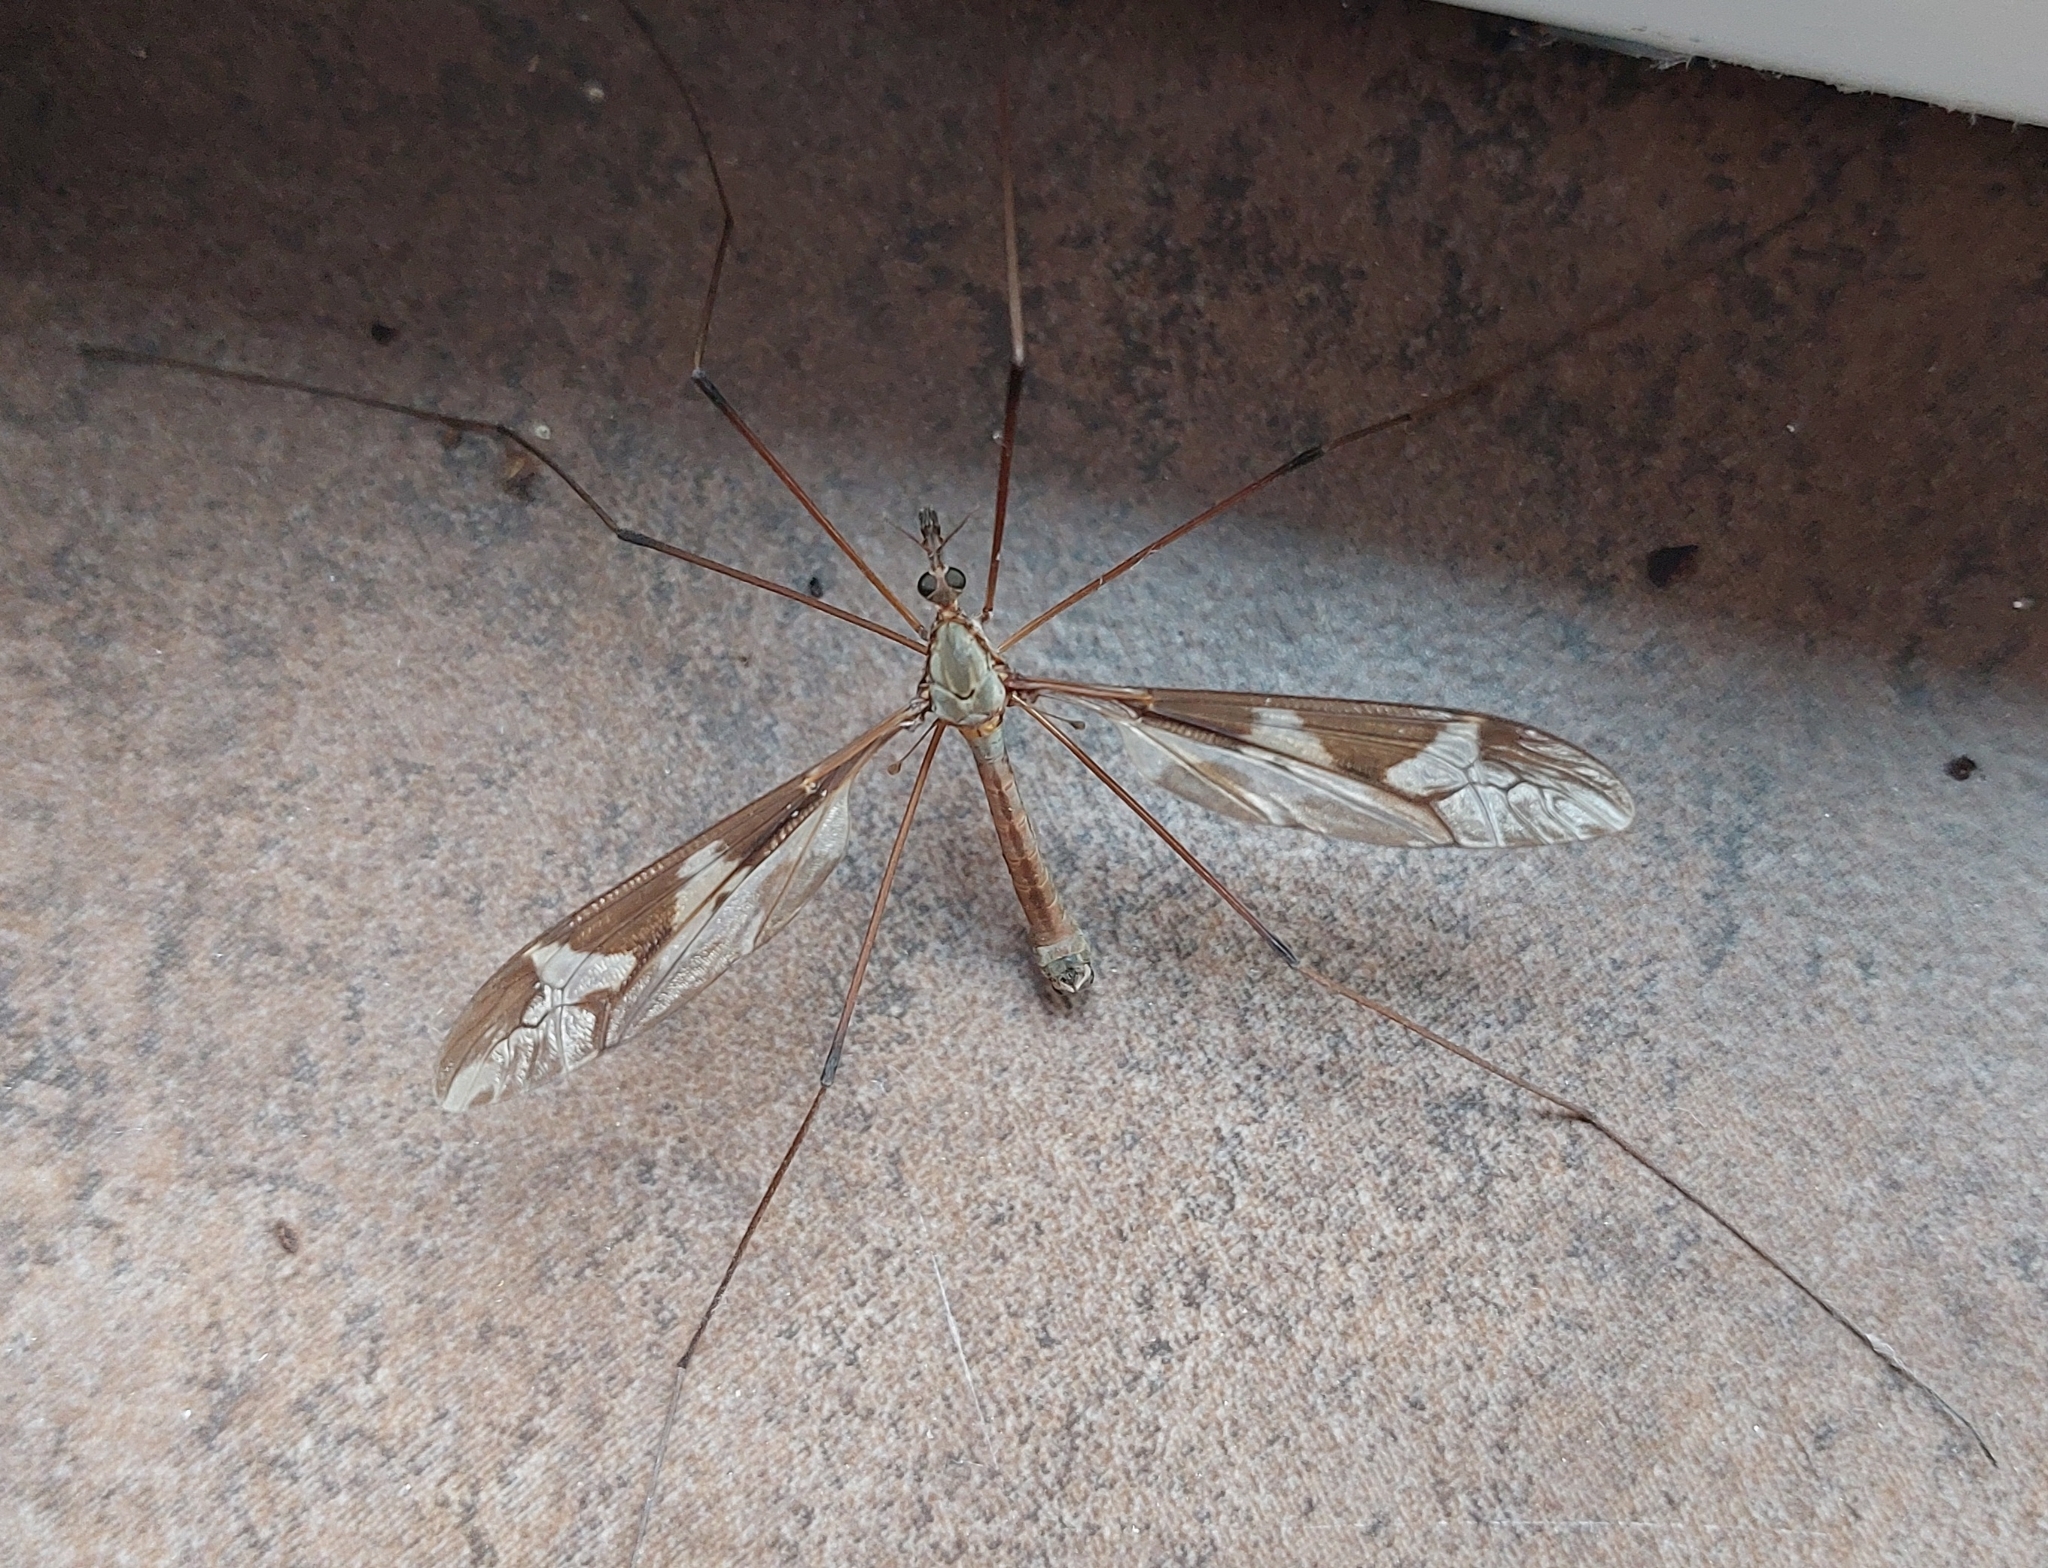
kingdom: Animalia
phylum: Arthropoda
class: Insecta
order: Diptera
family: Tipulidae
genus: Tipula
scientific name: Tipula maxima
